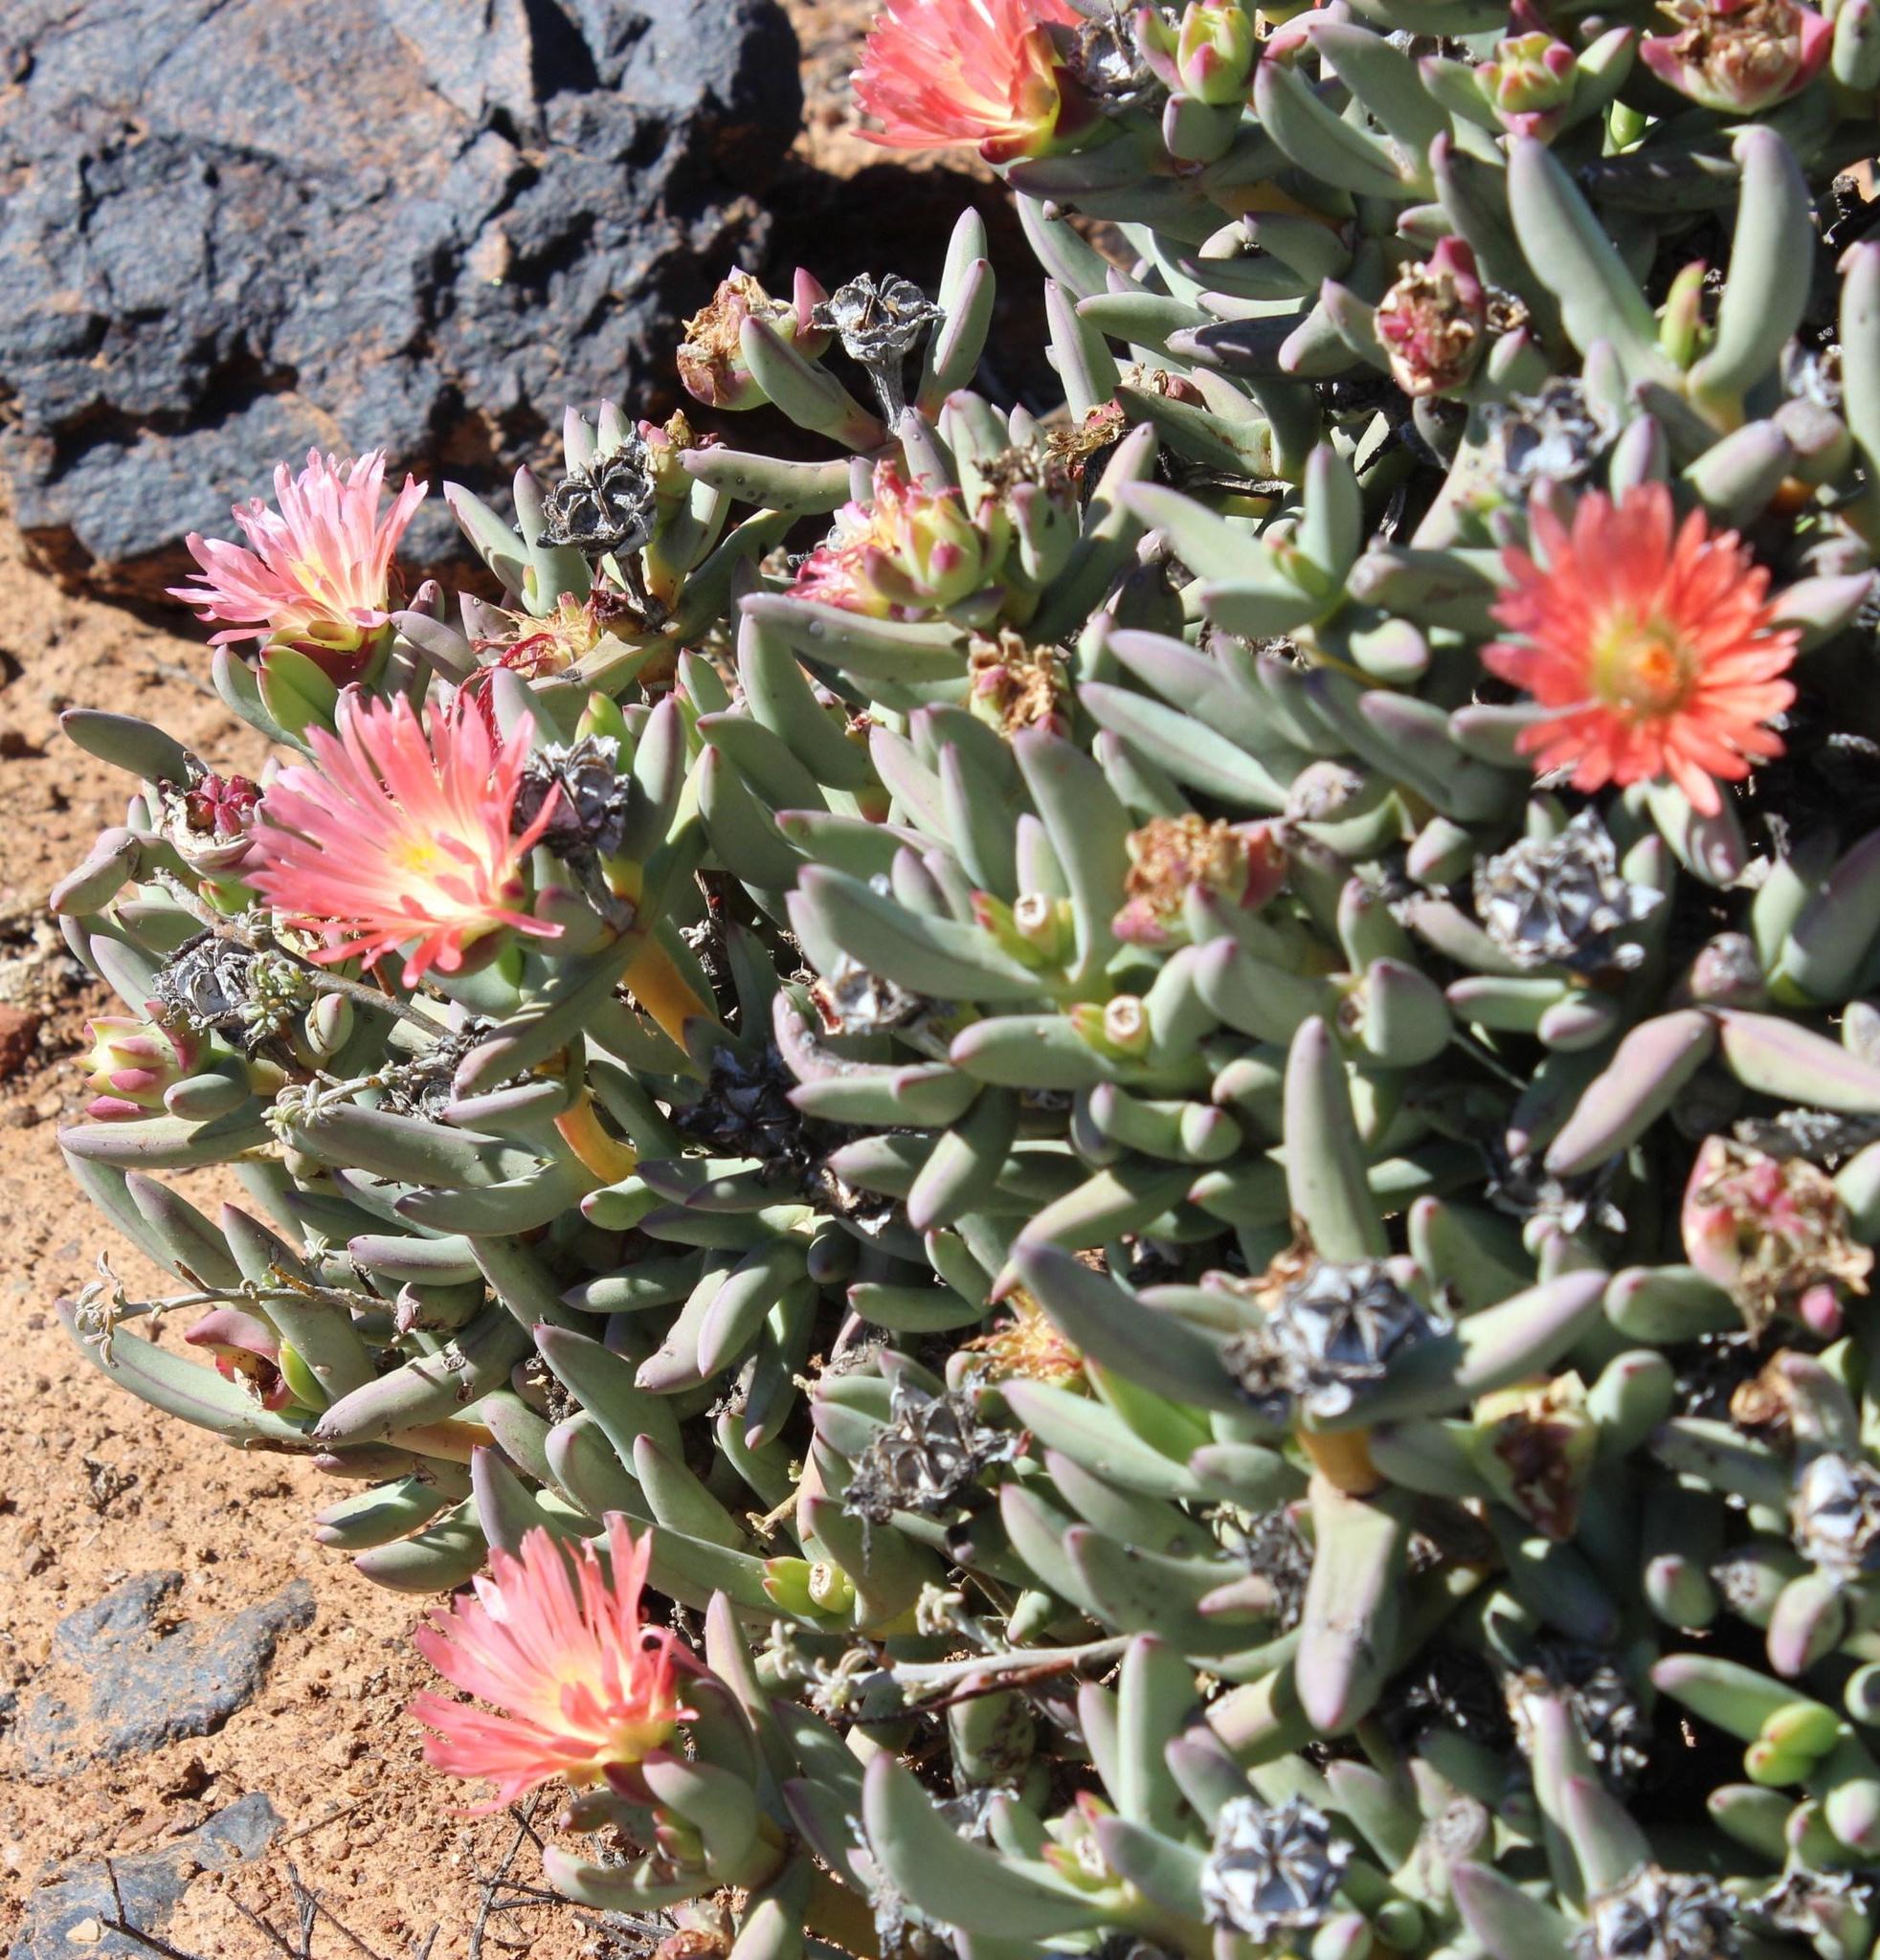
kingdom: Plantae
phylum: Tracheophyta
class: Magnoliopsida
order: Caryophyllales
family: Aizoaceae
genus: Astridia
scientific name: Astridia longifolia
